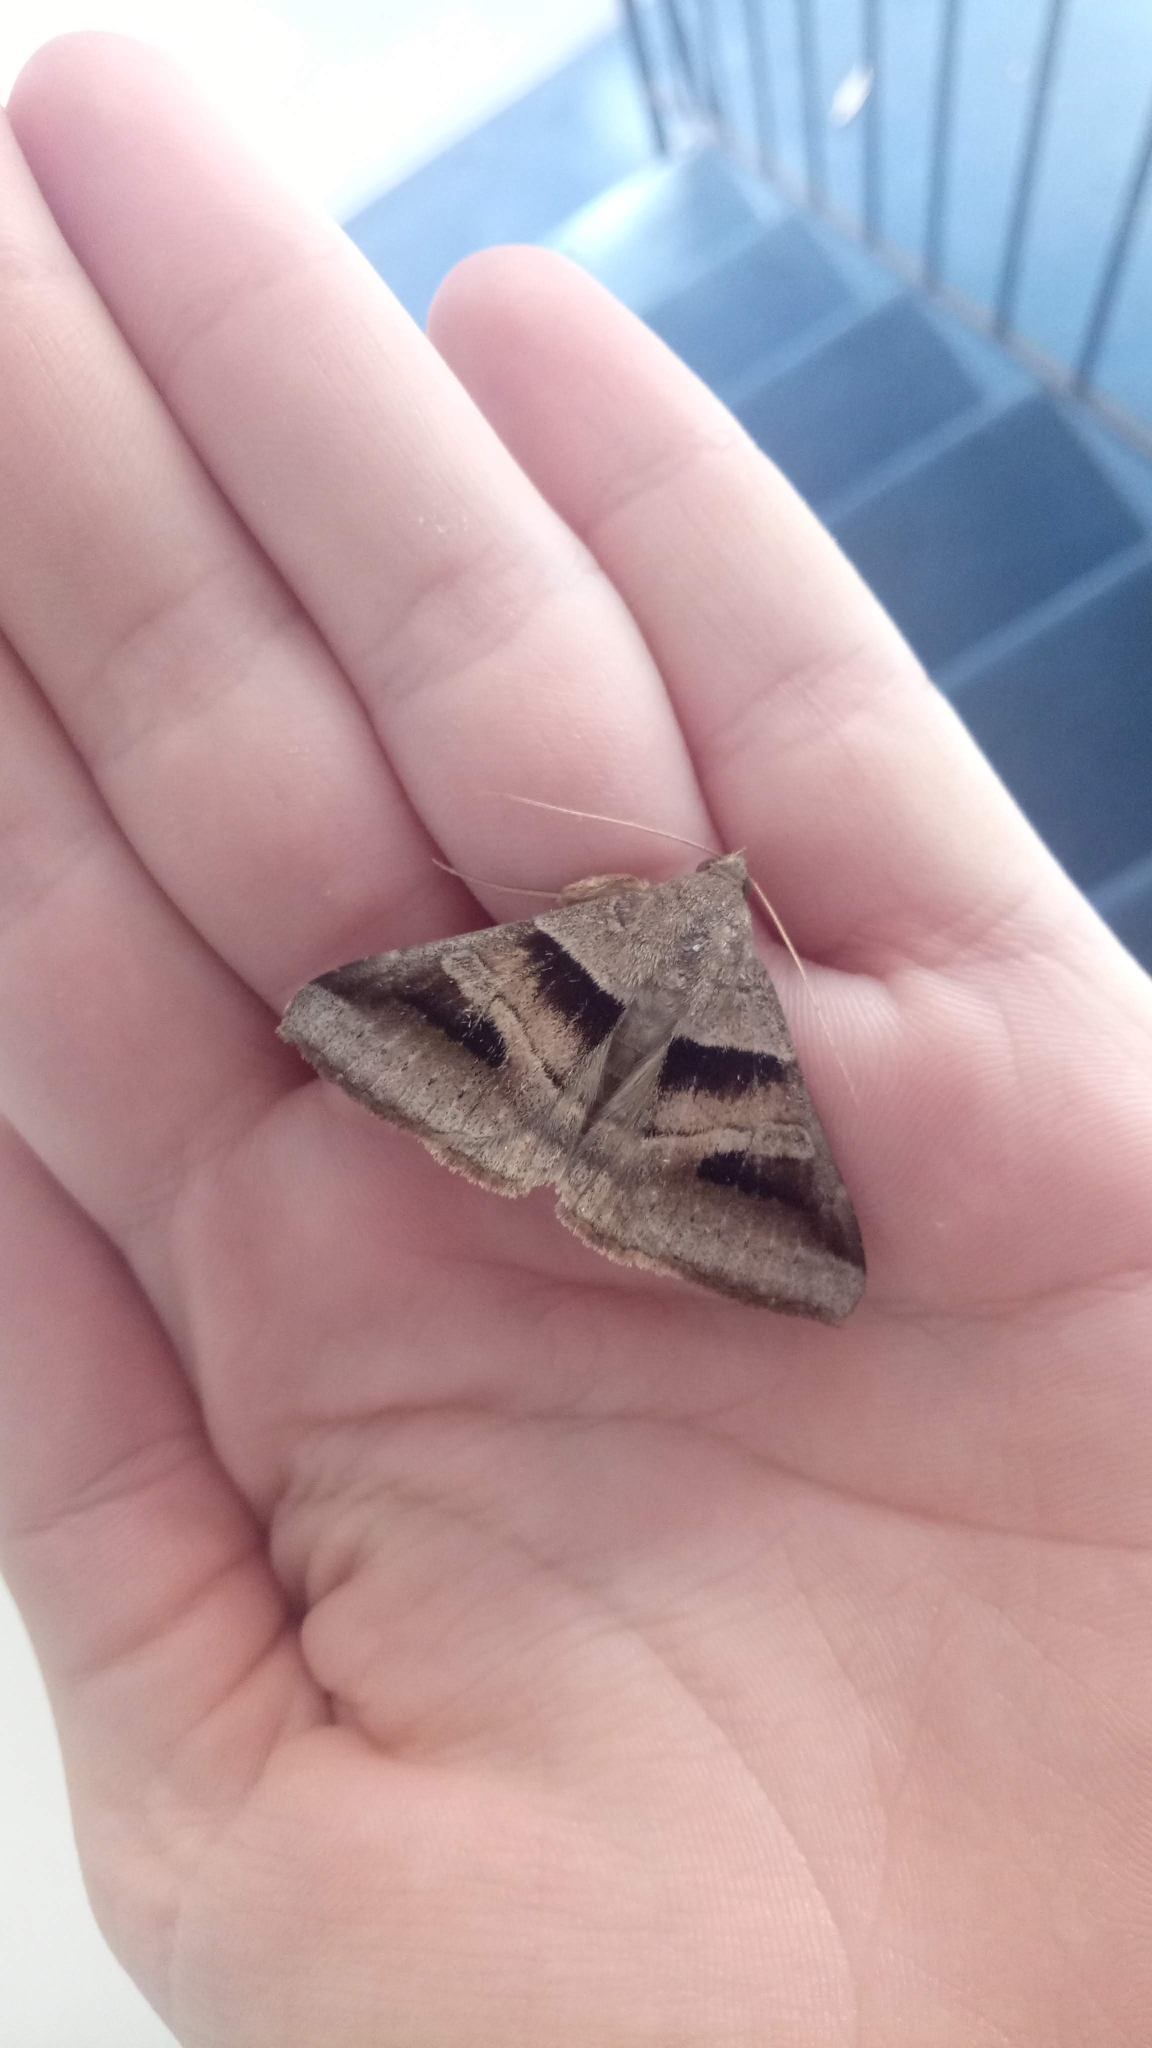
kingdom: Animalia
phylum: Arthropoda
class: Insecta
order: Lepidoptera
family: Erebidae
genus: Mocis
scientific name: Mocis trifasciata
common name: Triple-barred
